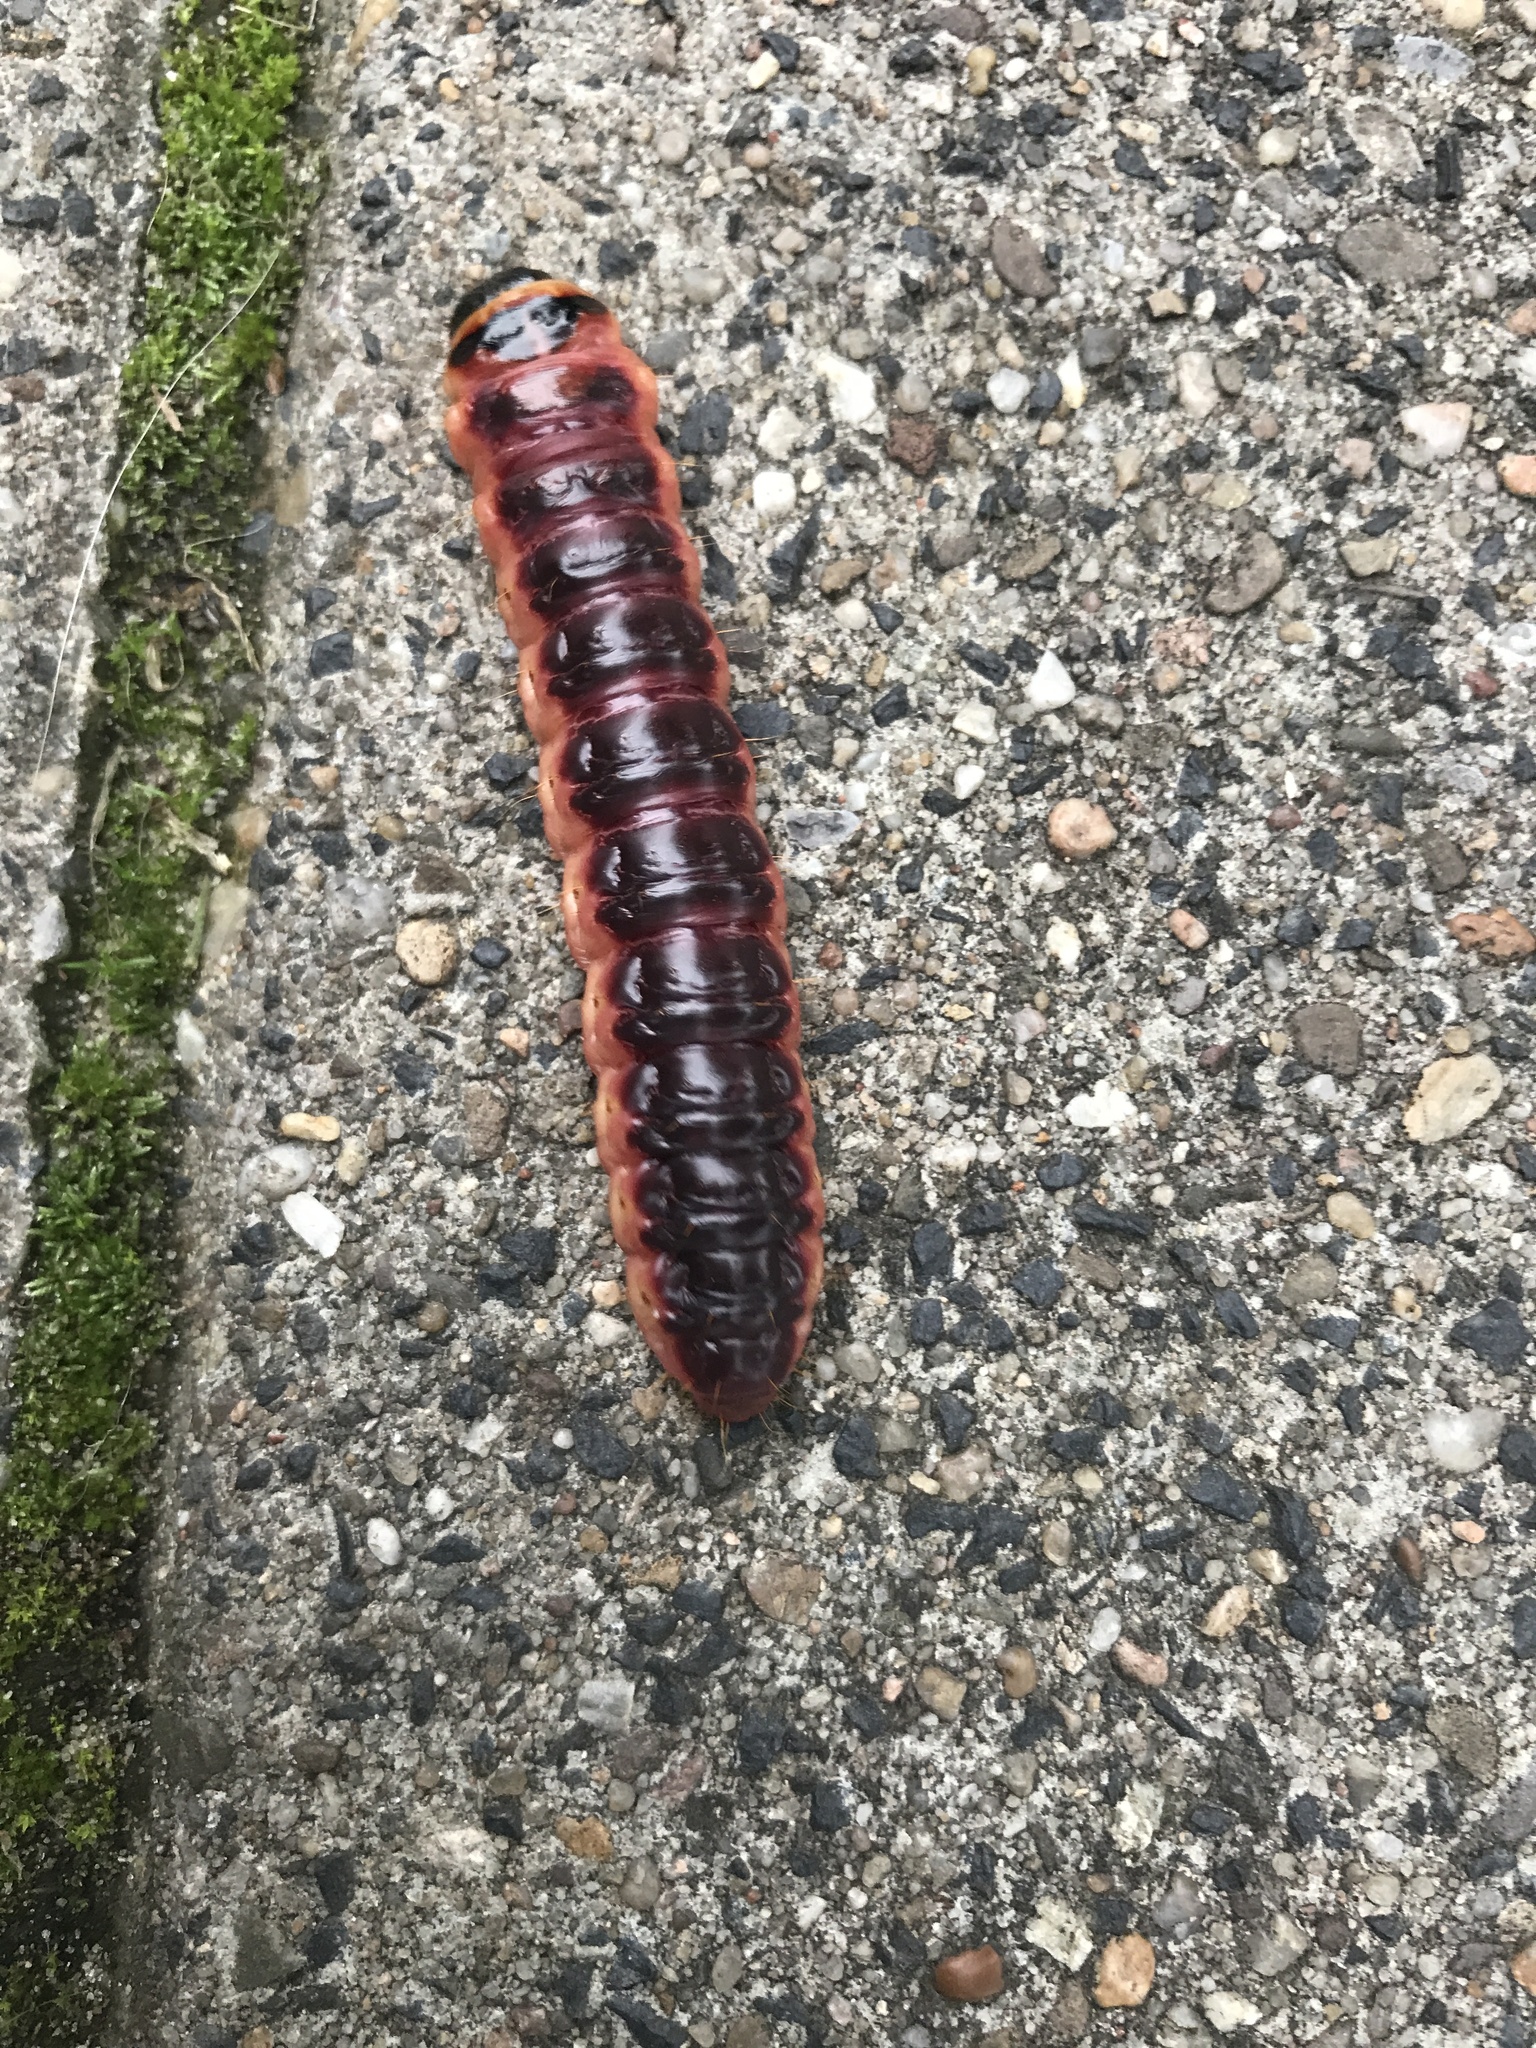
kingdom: Animalia
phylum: Arthropoda
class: Insecta
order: Lepidoptera
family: Cossidae
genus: Cossus
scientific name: Cossus cossus
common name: Goat moth
